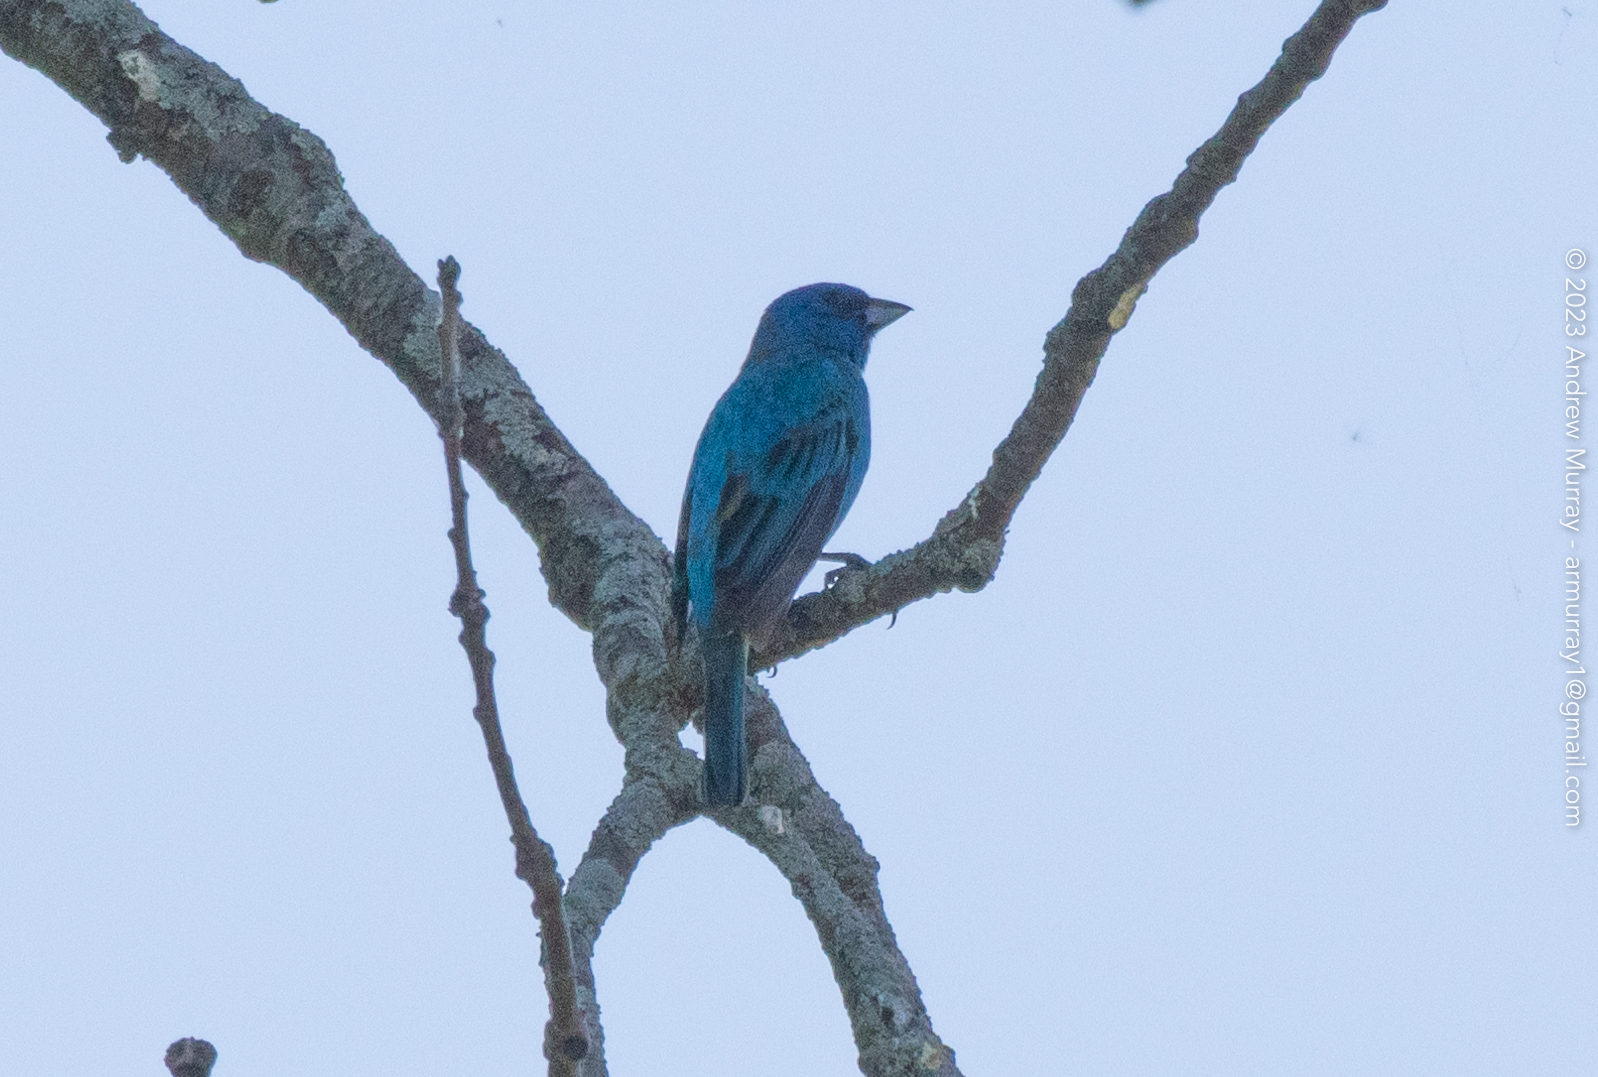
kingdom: Animalia
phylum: Chordata
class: Aves
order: Passeriformes
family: Cardinalidae
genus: Passerina
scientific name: Passerina cyanea
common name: Indigo bunting
